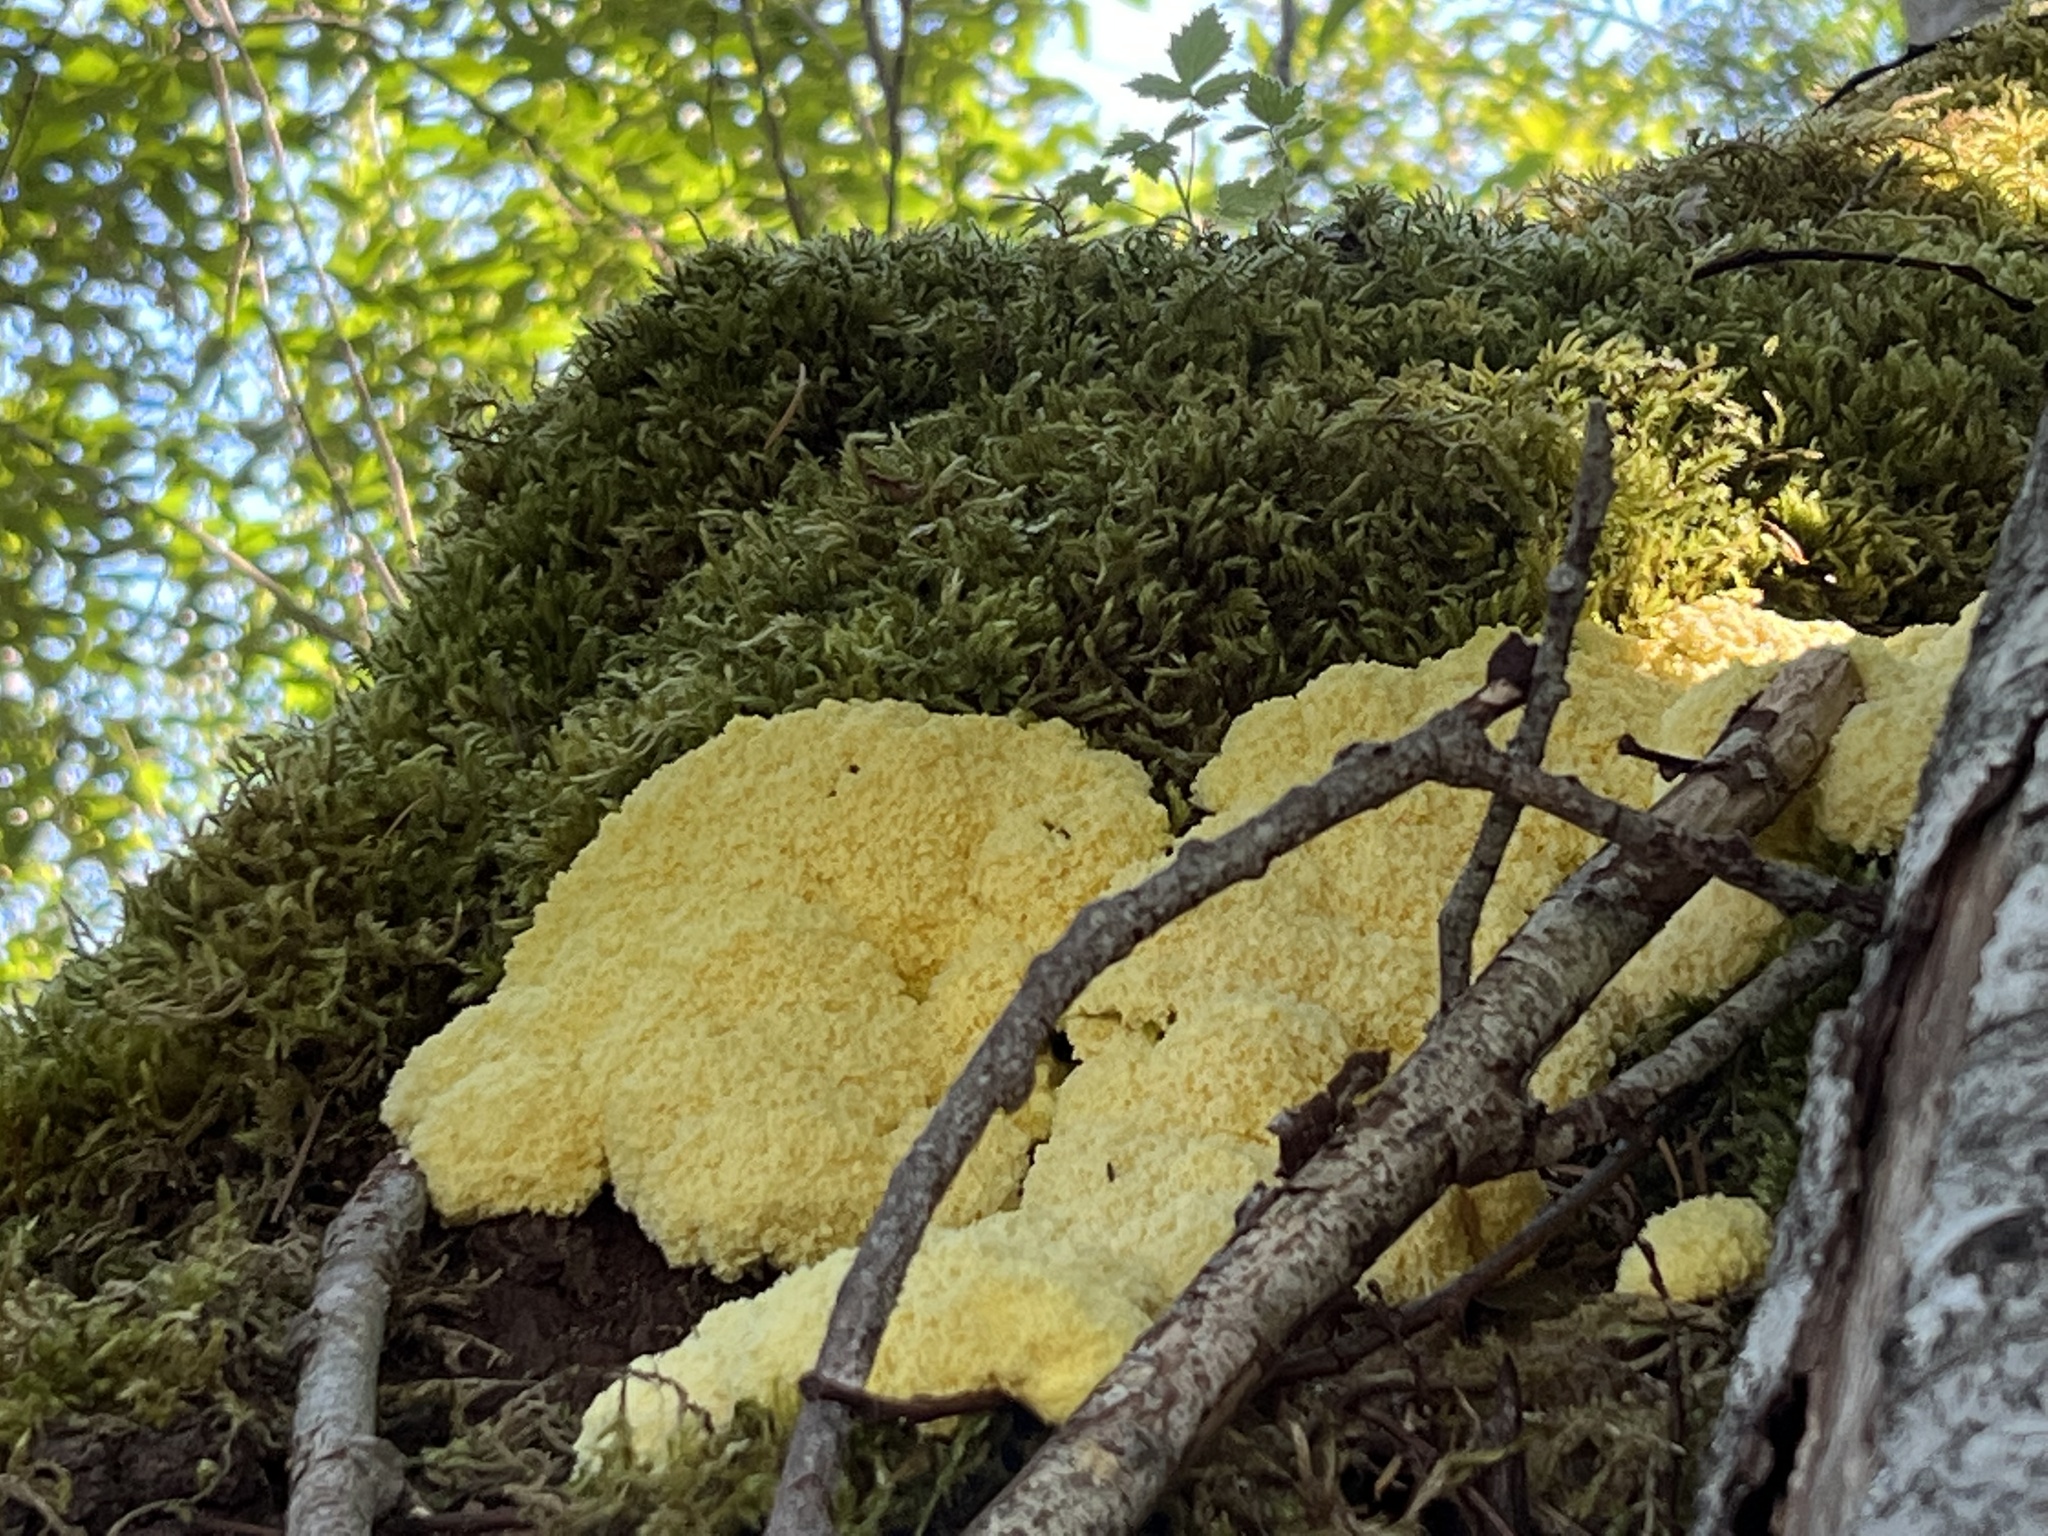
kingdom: Protozoa
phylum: Mycetozoa
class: Myxomycetes
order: Physarales
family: Physaraceae
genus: Fuligo
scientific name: Fuligo septica
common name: Dog vomit slime mold
